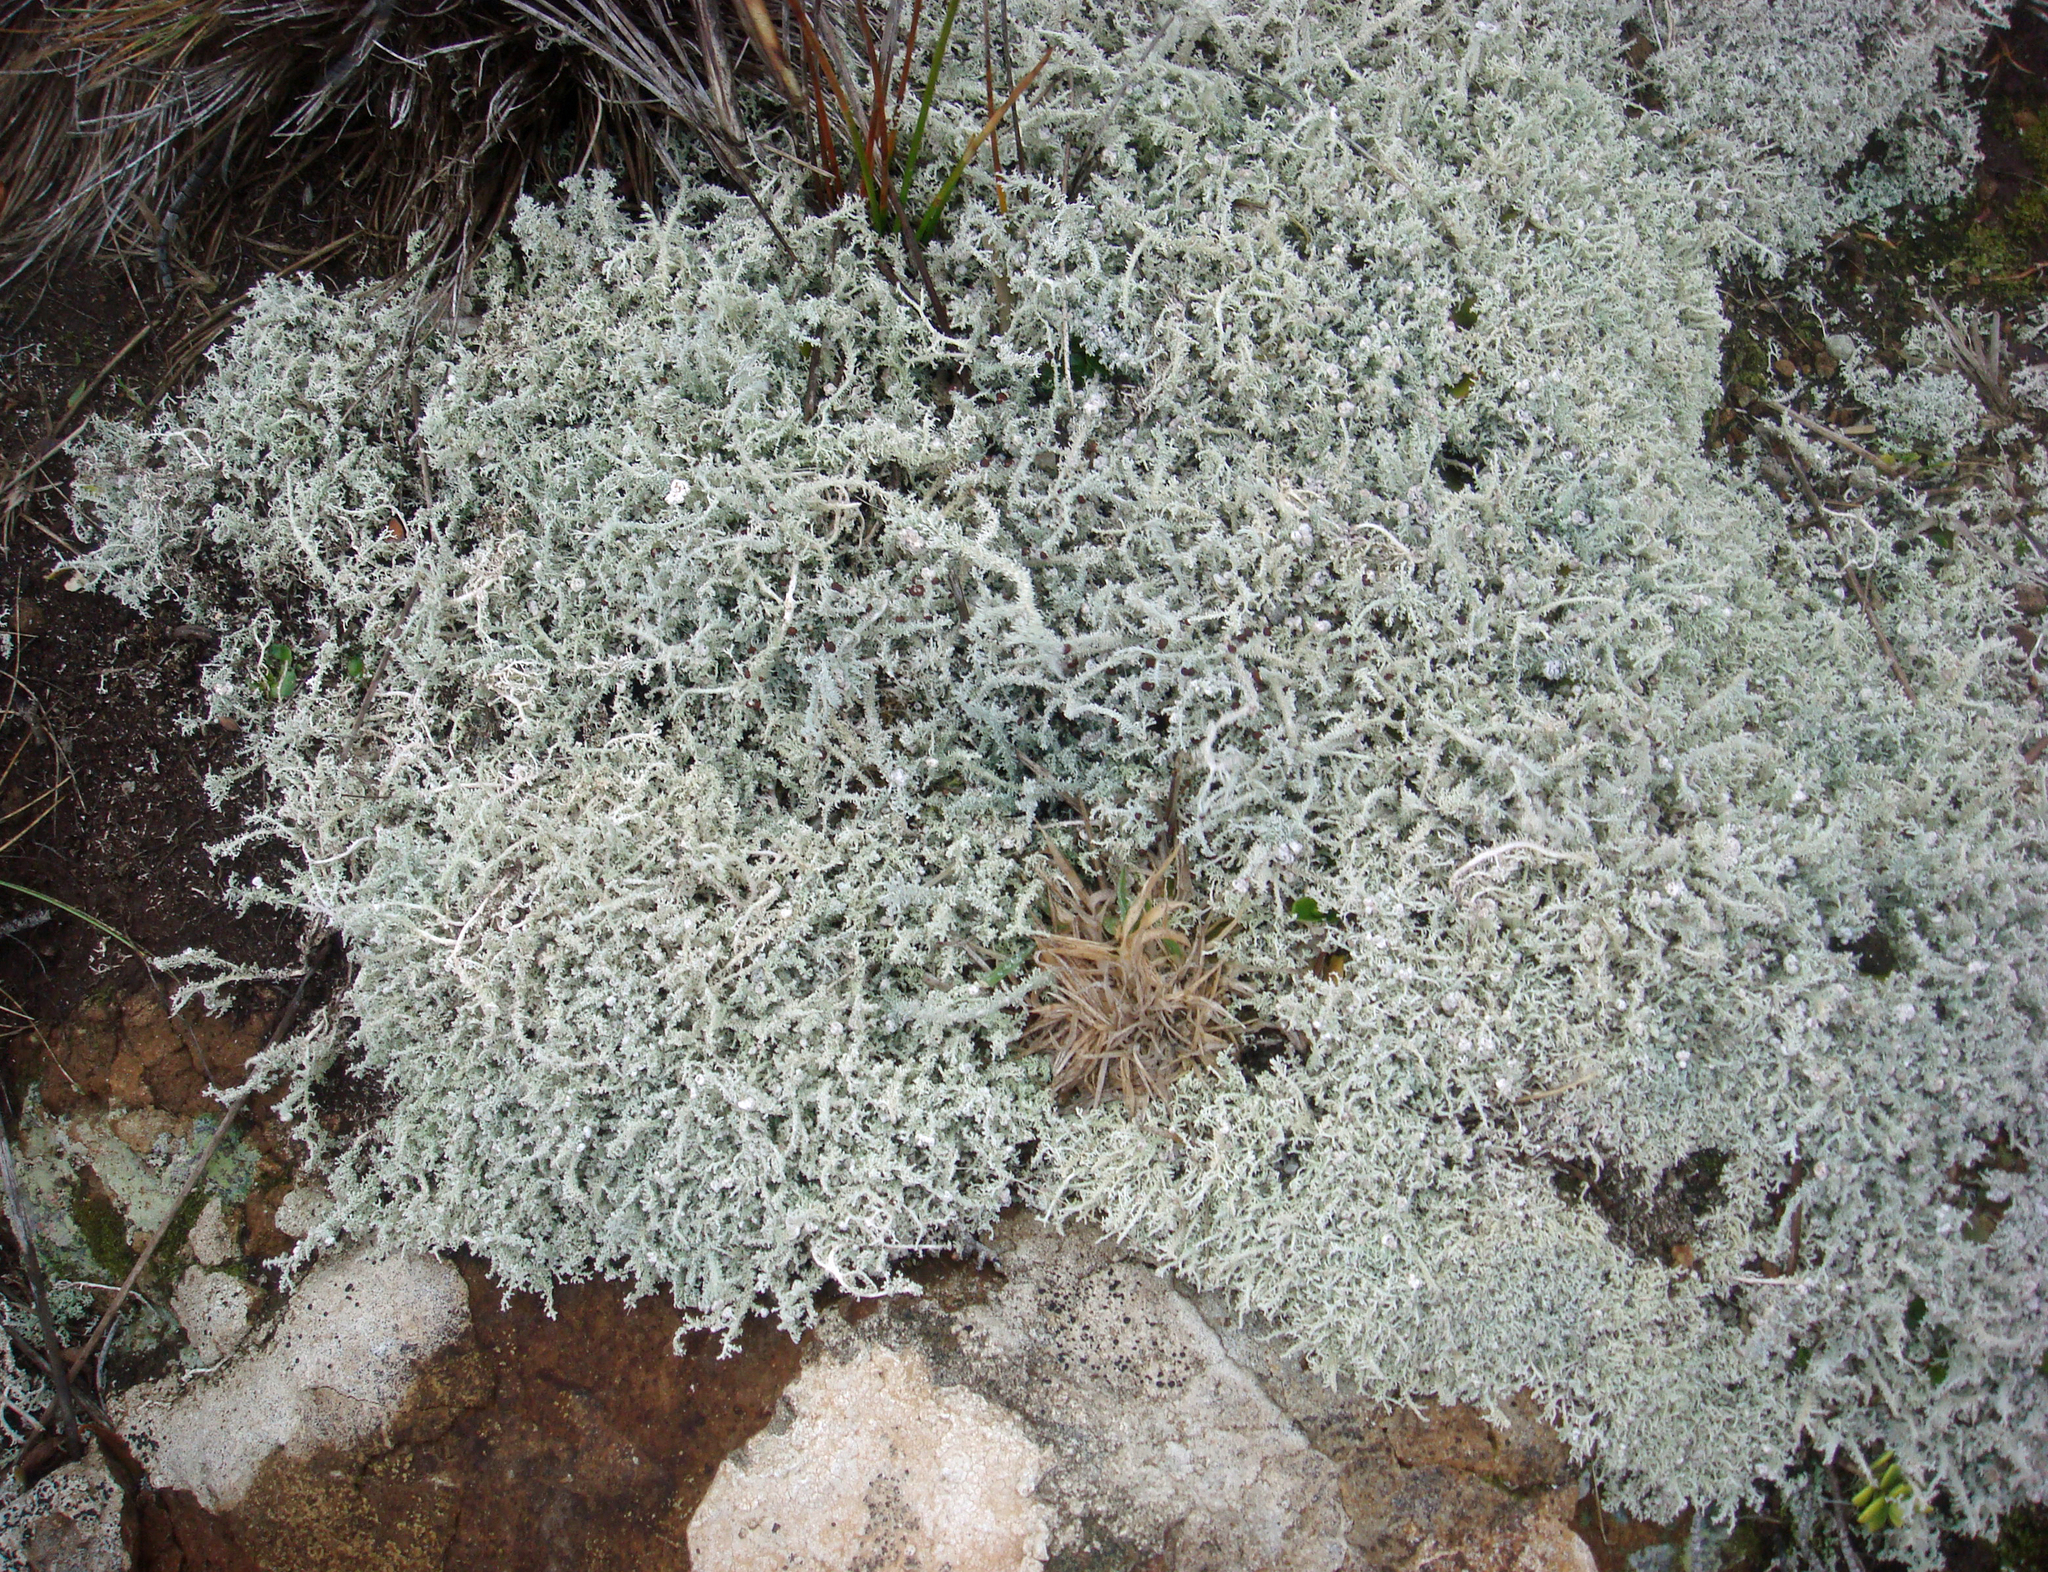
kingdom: Fungi
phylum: Ascomycota
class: Lecanoromycetes
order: Lecanorales
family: Stereocaulaceae
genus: Stereocaulon
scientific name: Stereocaulon ramulosum
